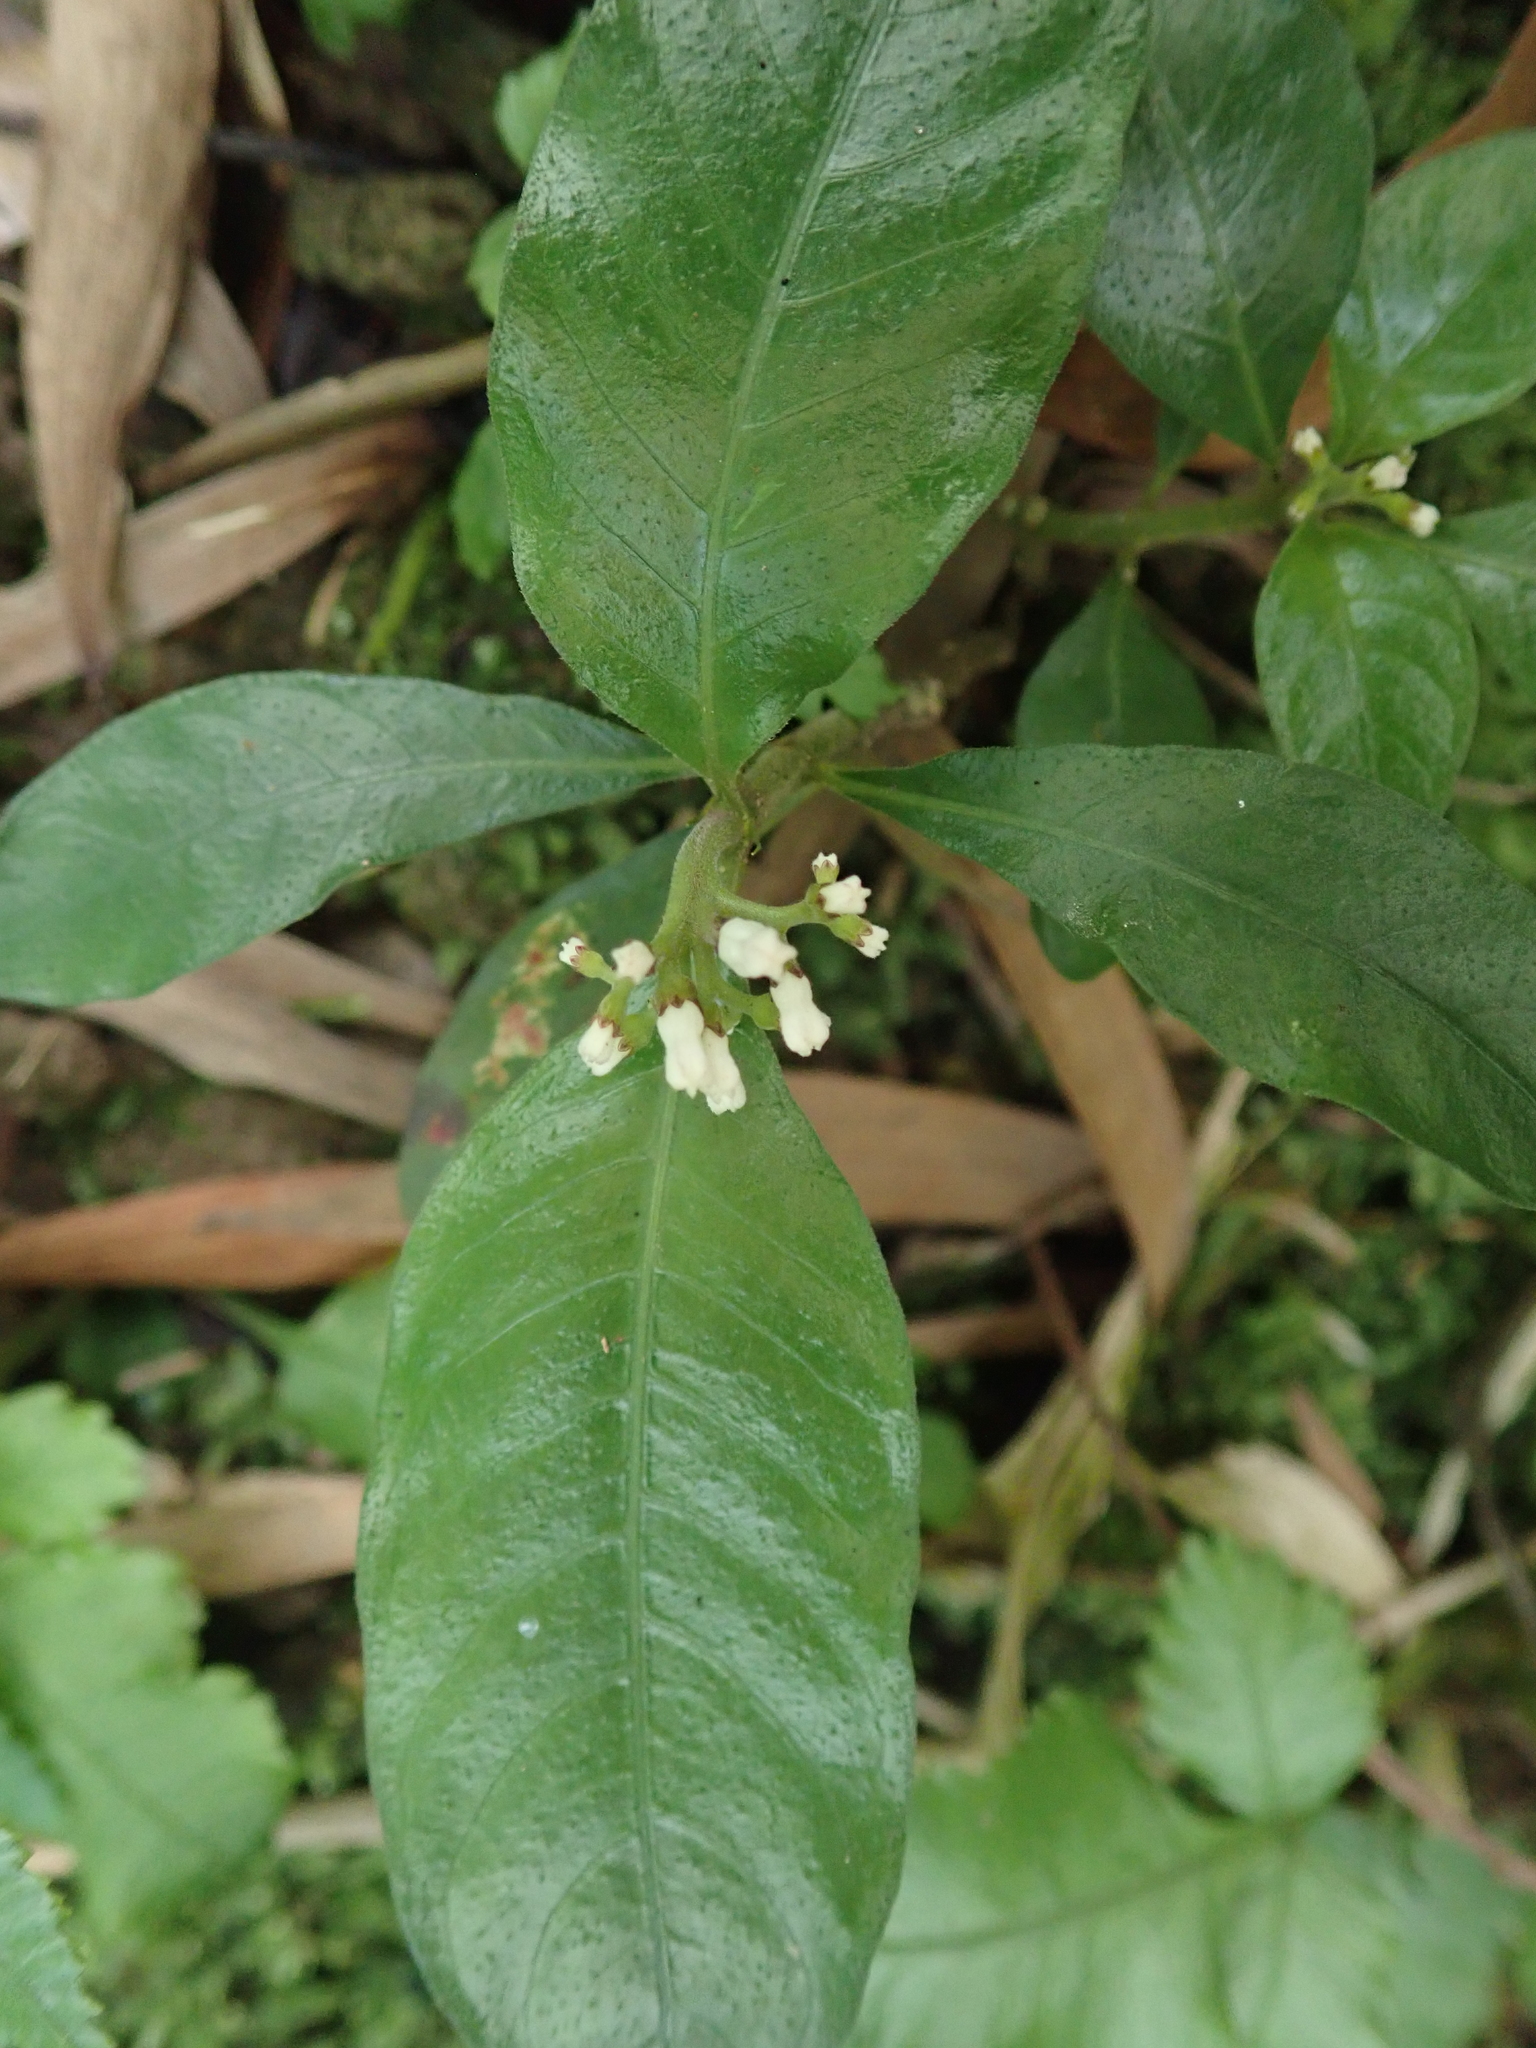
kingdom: Plantae
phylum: Tracheophyta
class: Magnoliopsida
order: Gentianales
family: Rubiaceae
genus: Ophiorrhiza
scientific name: Ophiorrhiza pumila
